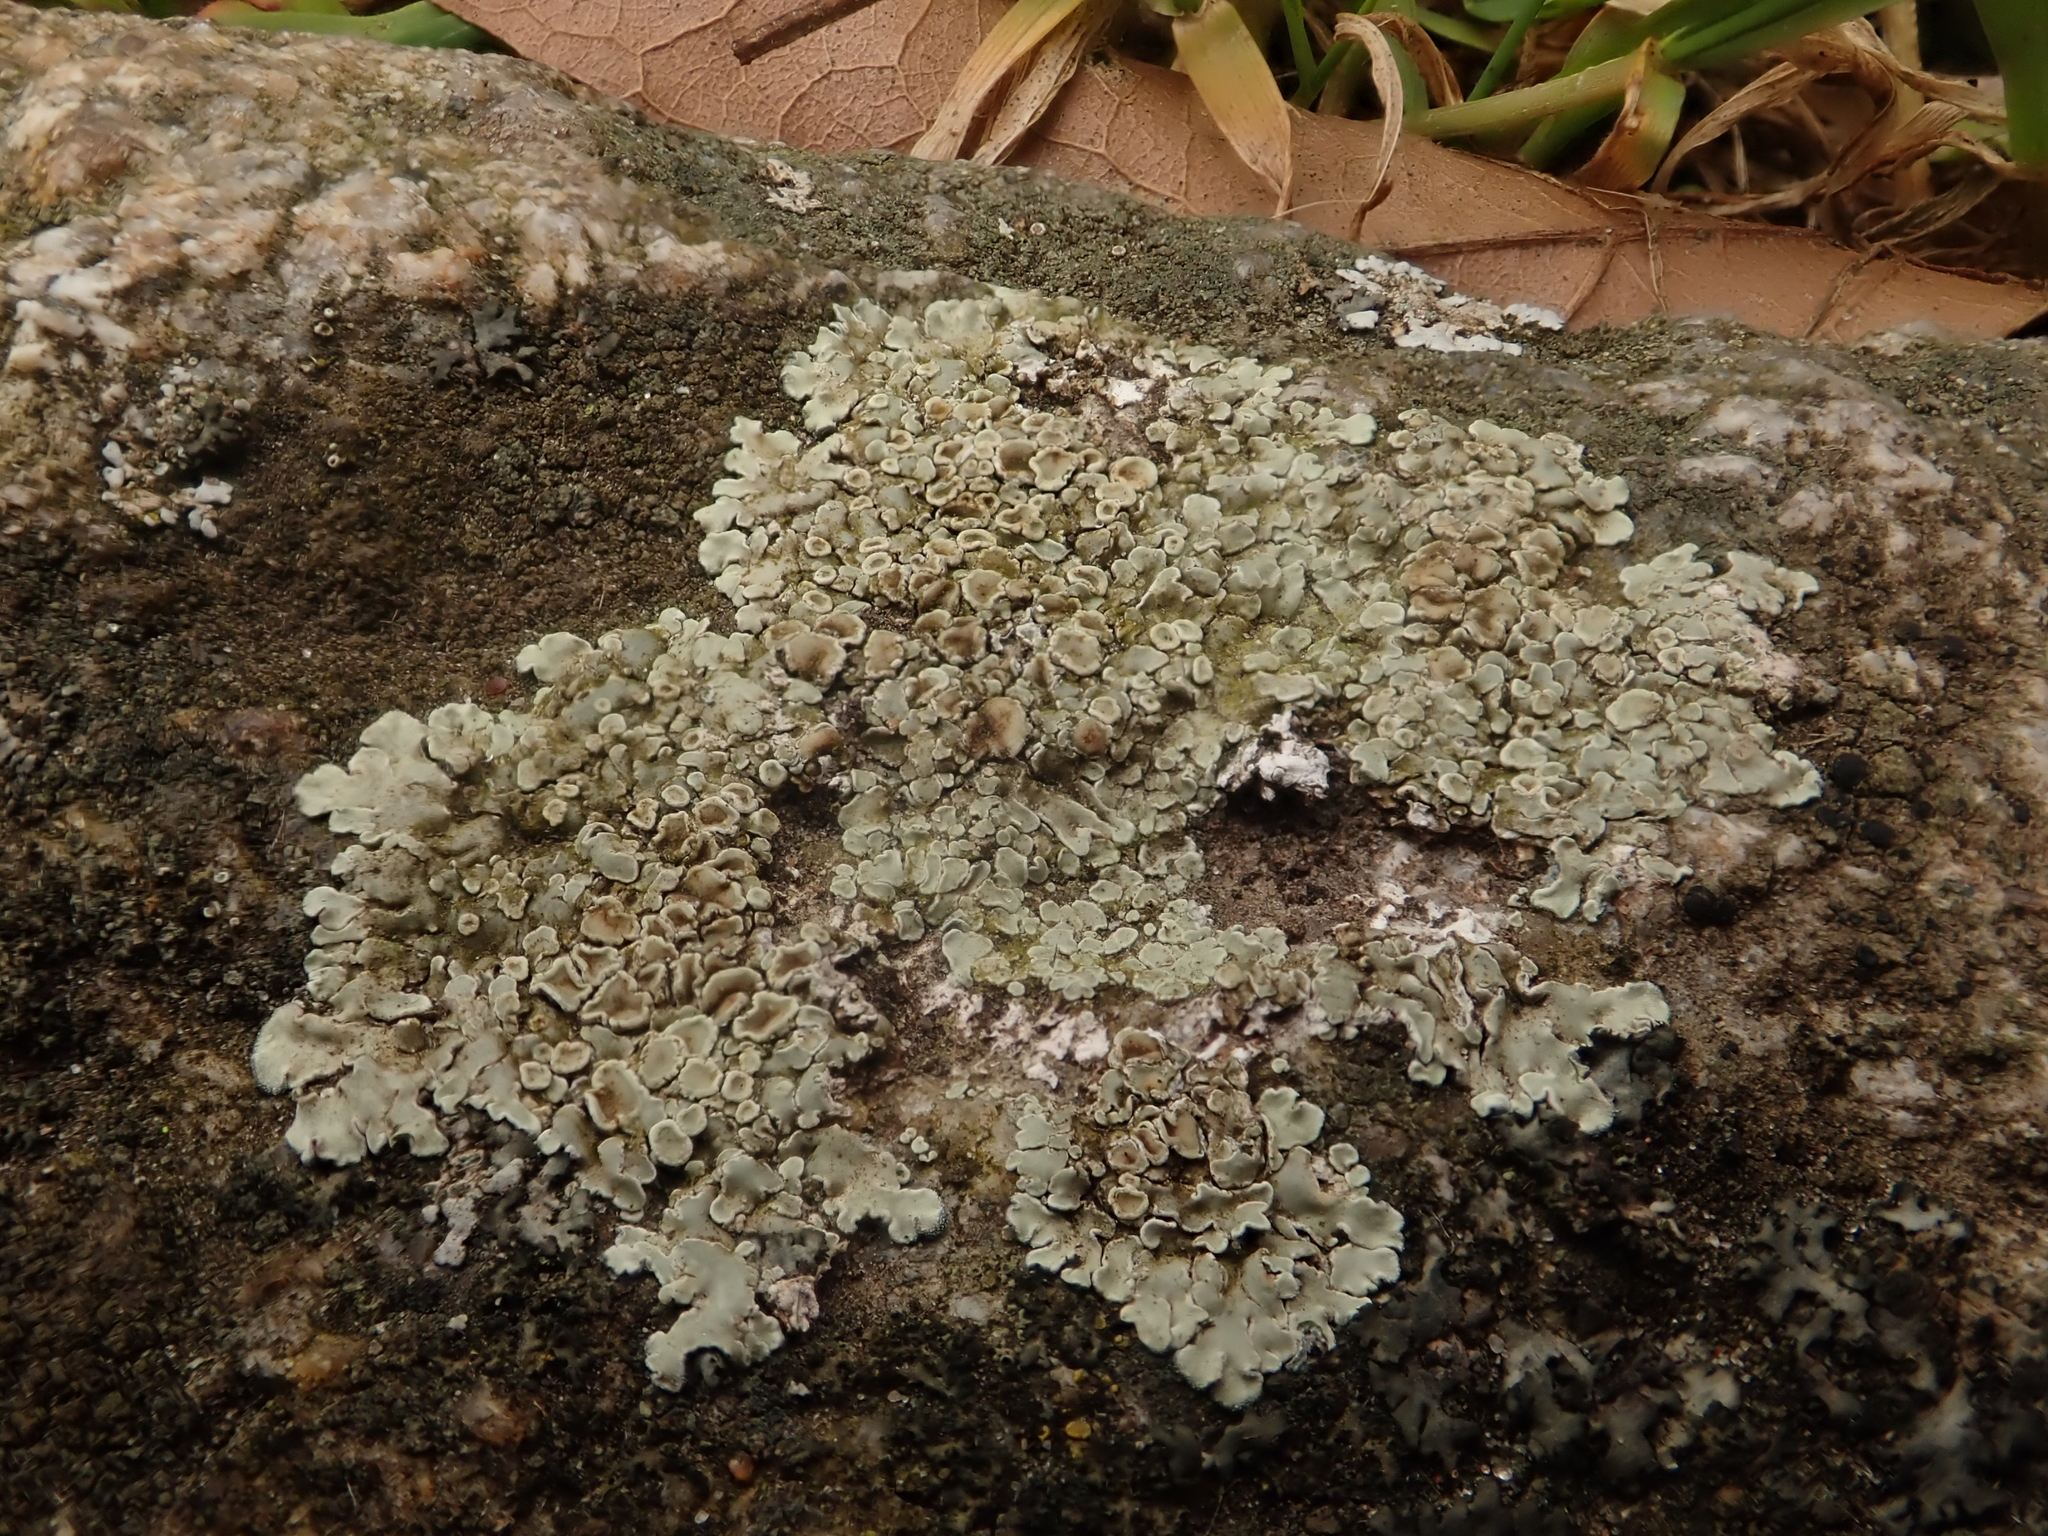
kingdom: Fungi
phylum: Ascomycota
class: Lecanoromycetes
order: Lecanorales
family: Lecanoraceae
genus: Protoparmeliopsis
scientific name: Protoparmeliopsis muralis
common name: Stonewall rim lichen
